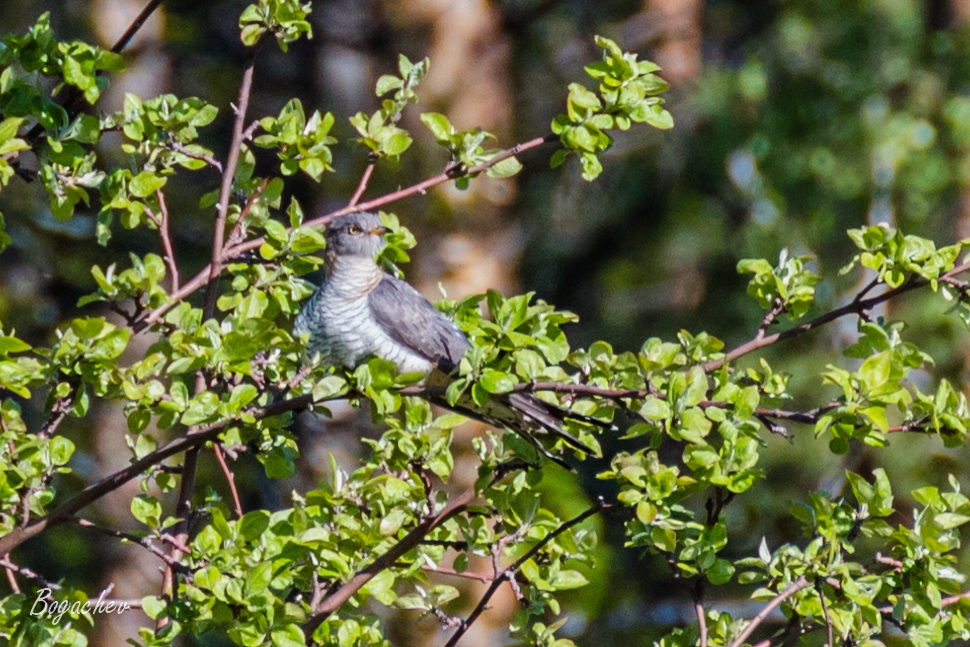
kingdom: Animalia
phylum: Chordata
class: Aves
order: Cuculiformes
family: Cuculidae
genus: Cuculus
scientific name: Cuculus canorus
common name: Common cuckoo
